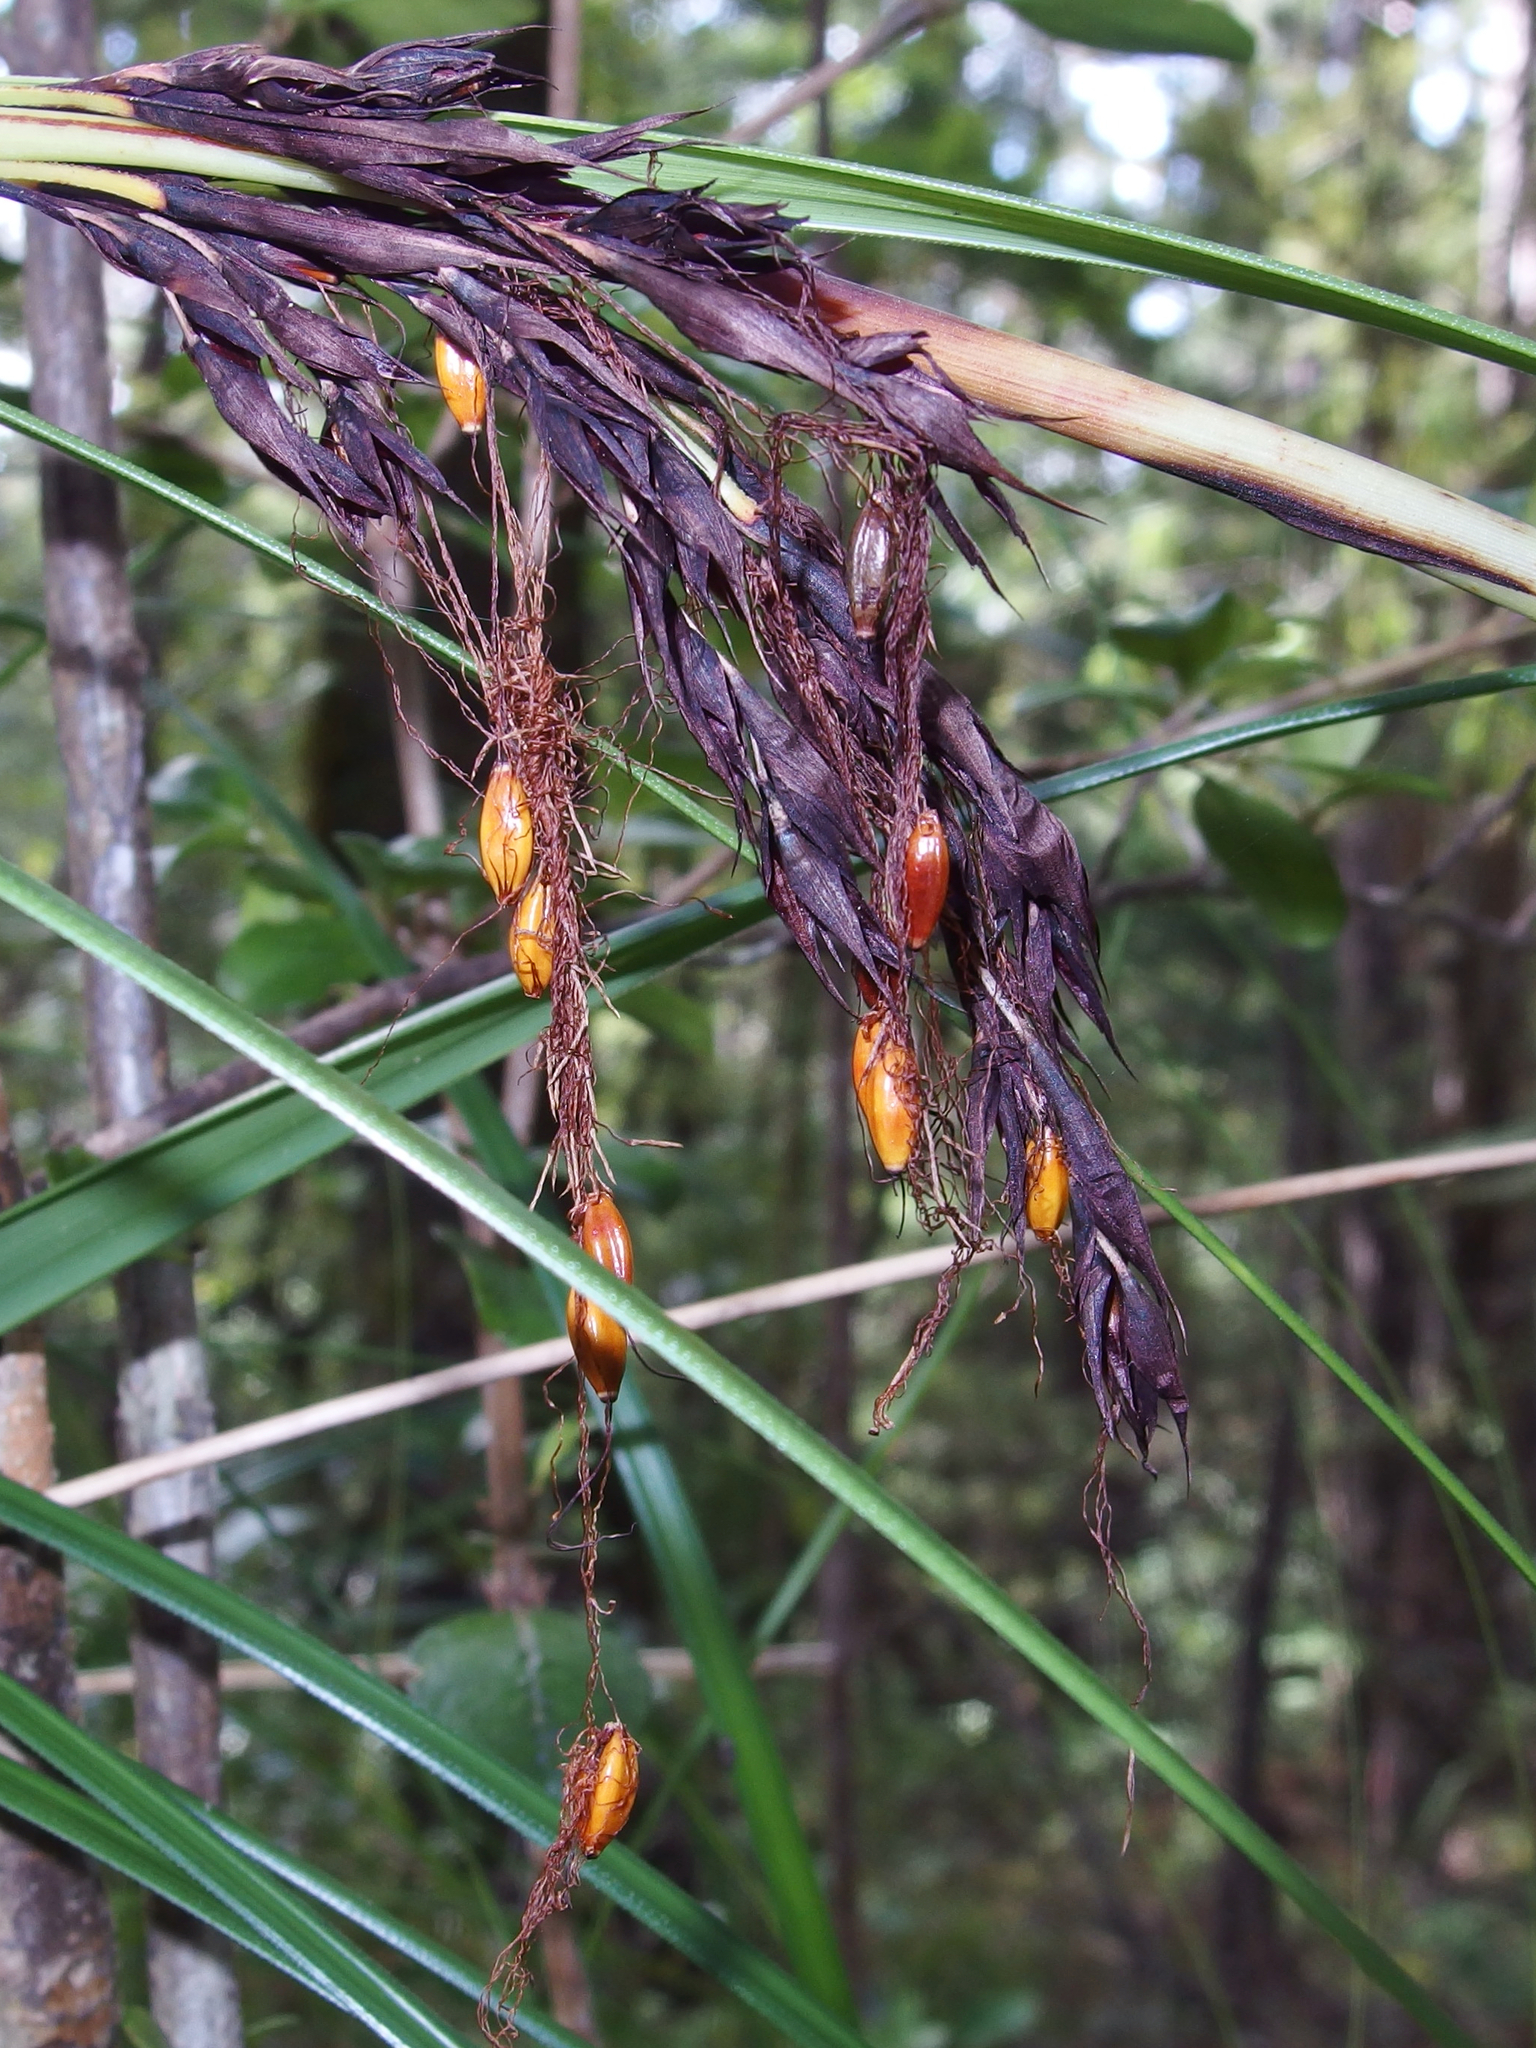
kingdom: Plantae
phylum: Tracheophyta
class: Liliopsida
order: Poales
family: Cyperaceae
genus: Gahnia
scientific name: Gahnia procera
